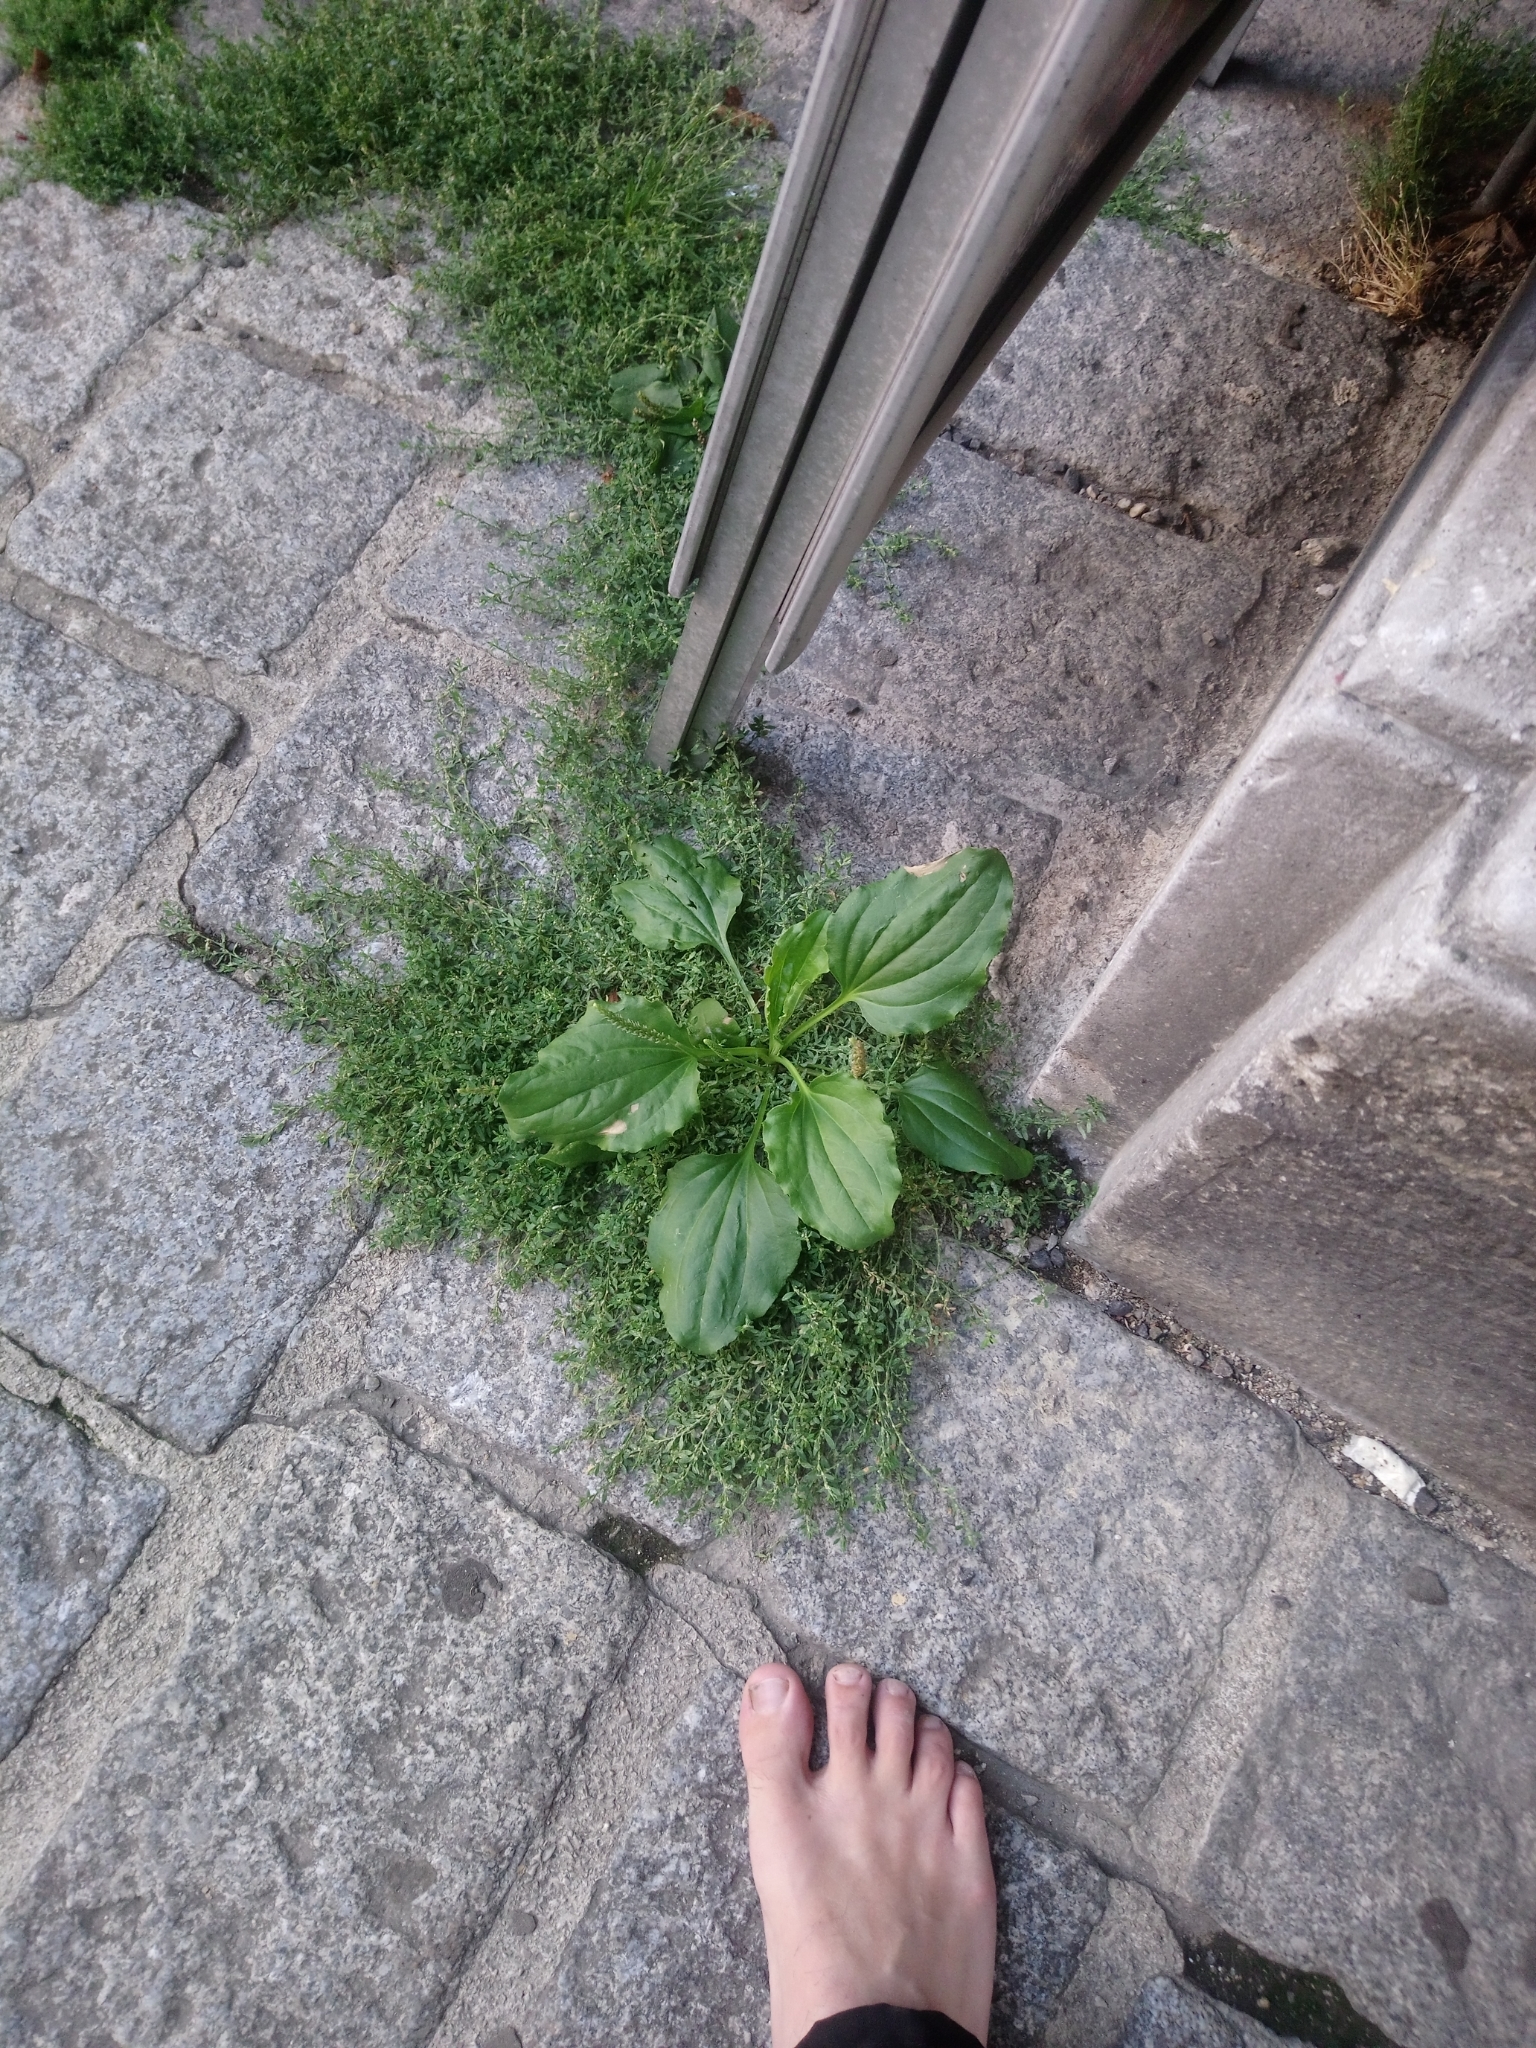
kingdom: Plantae
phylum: Tracheophyta
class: Magnoliopsida
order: Lamiales
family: Plantaginaceae
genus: Plantago
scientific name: Plantago major
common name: Common plantain
